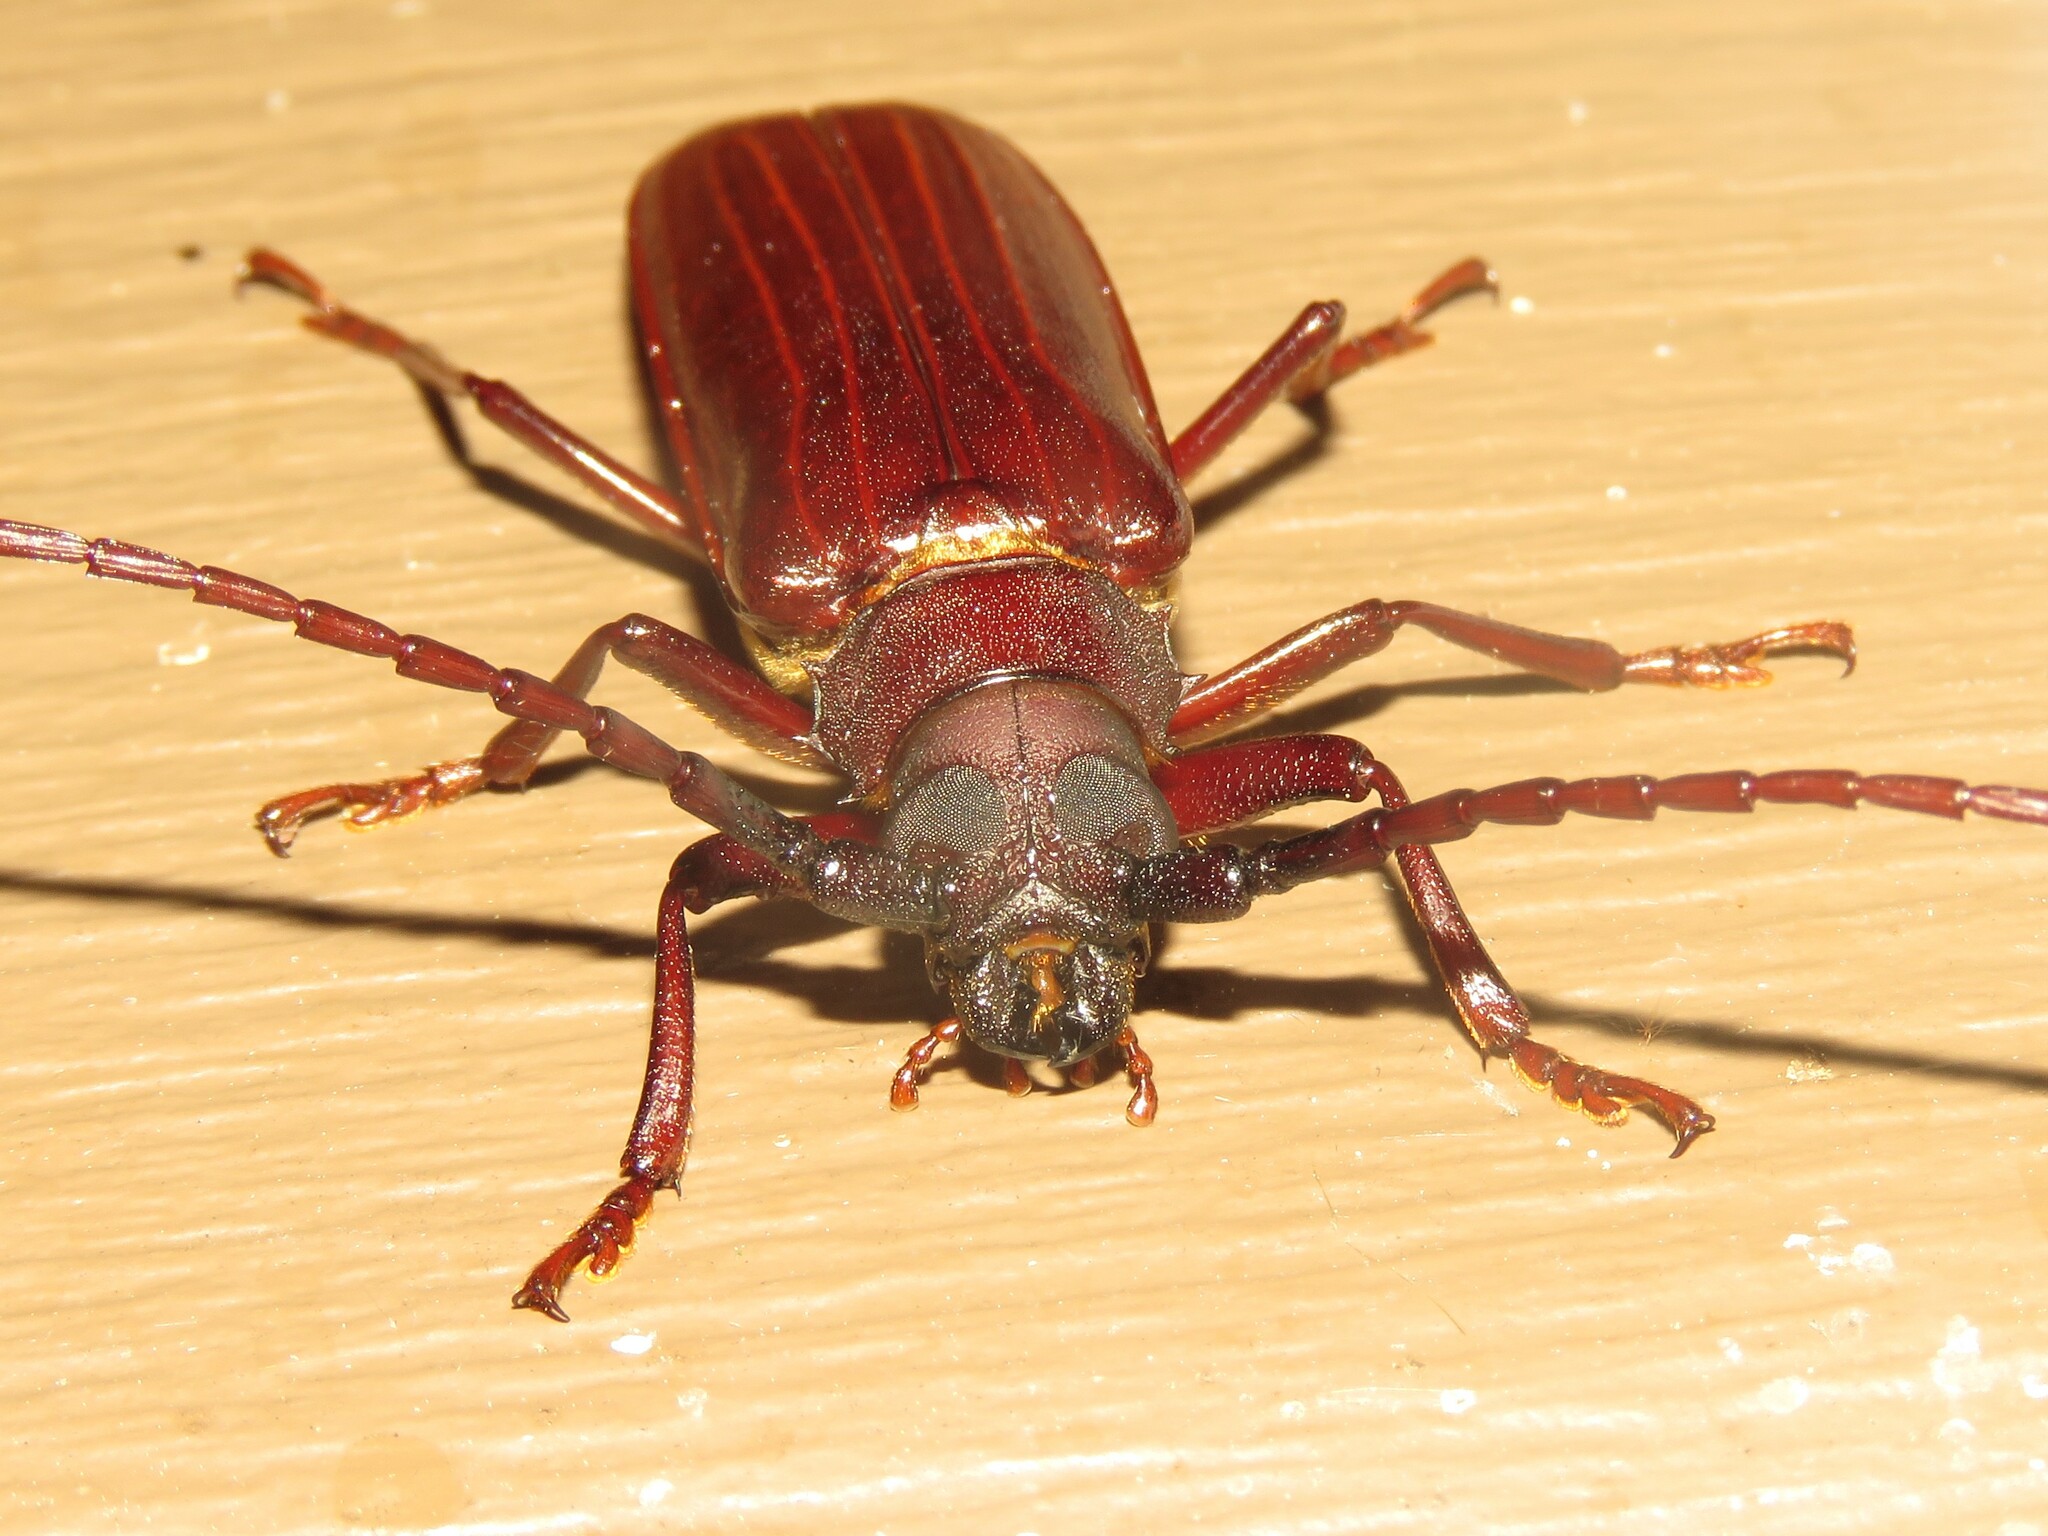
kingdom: Animalia
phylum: Arthropoda
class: Insecta
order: Coleoptera
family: Cerambycidae
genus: Orthosoma
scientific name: Orthosoma brunneum
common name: Brown prionid beetle
